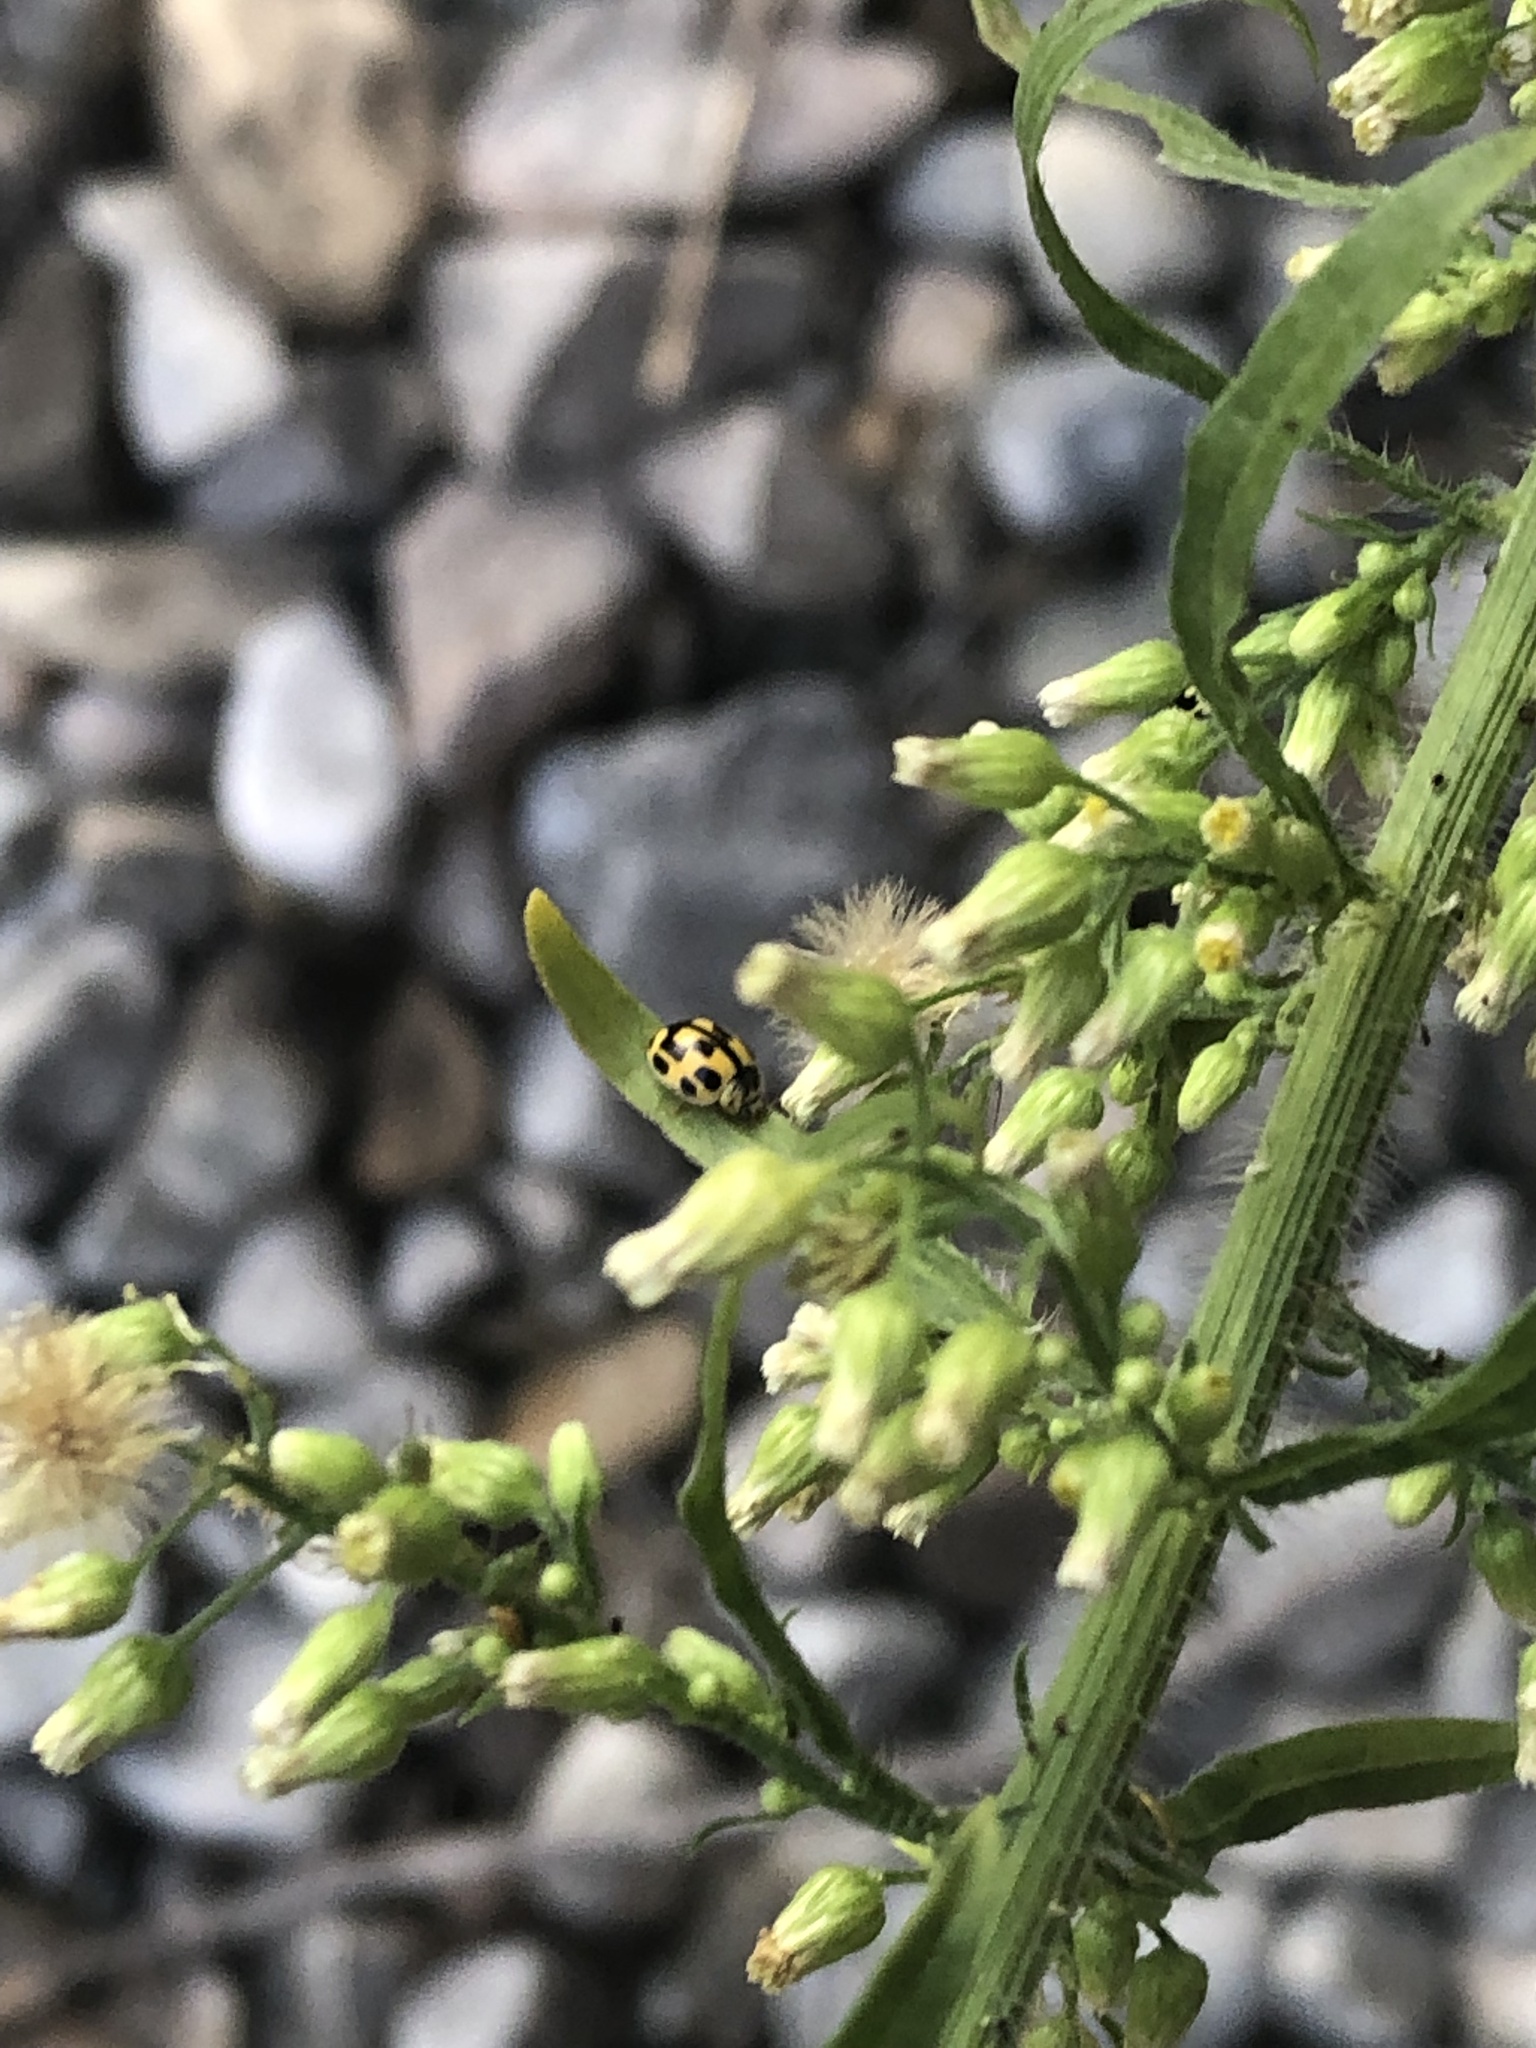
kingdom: Animalia
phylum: Arthropoda
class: Insecta
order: Coleoptera
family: Coccinellidae
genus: Propylaea
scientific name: Propylaea quatuordecimpunctata
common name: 14-spotted ladybird beetle
